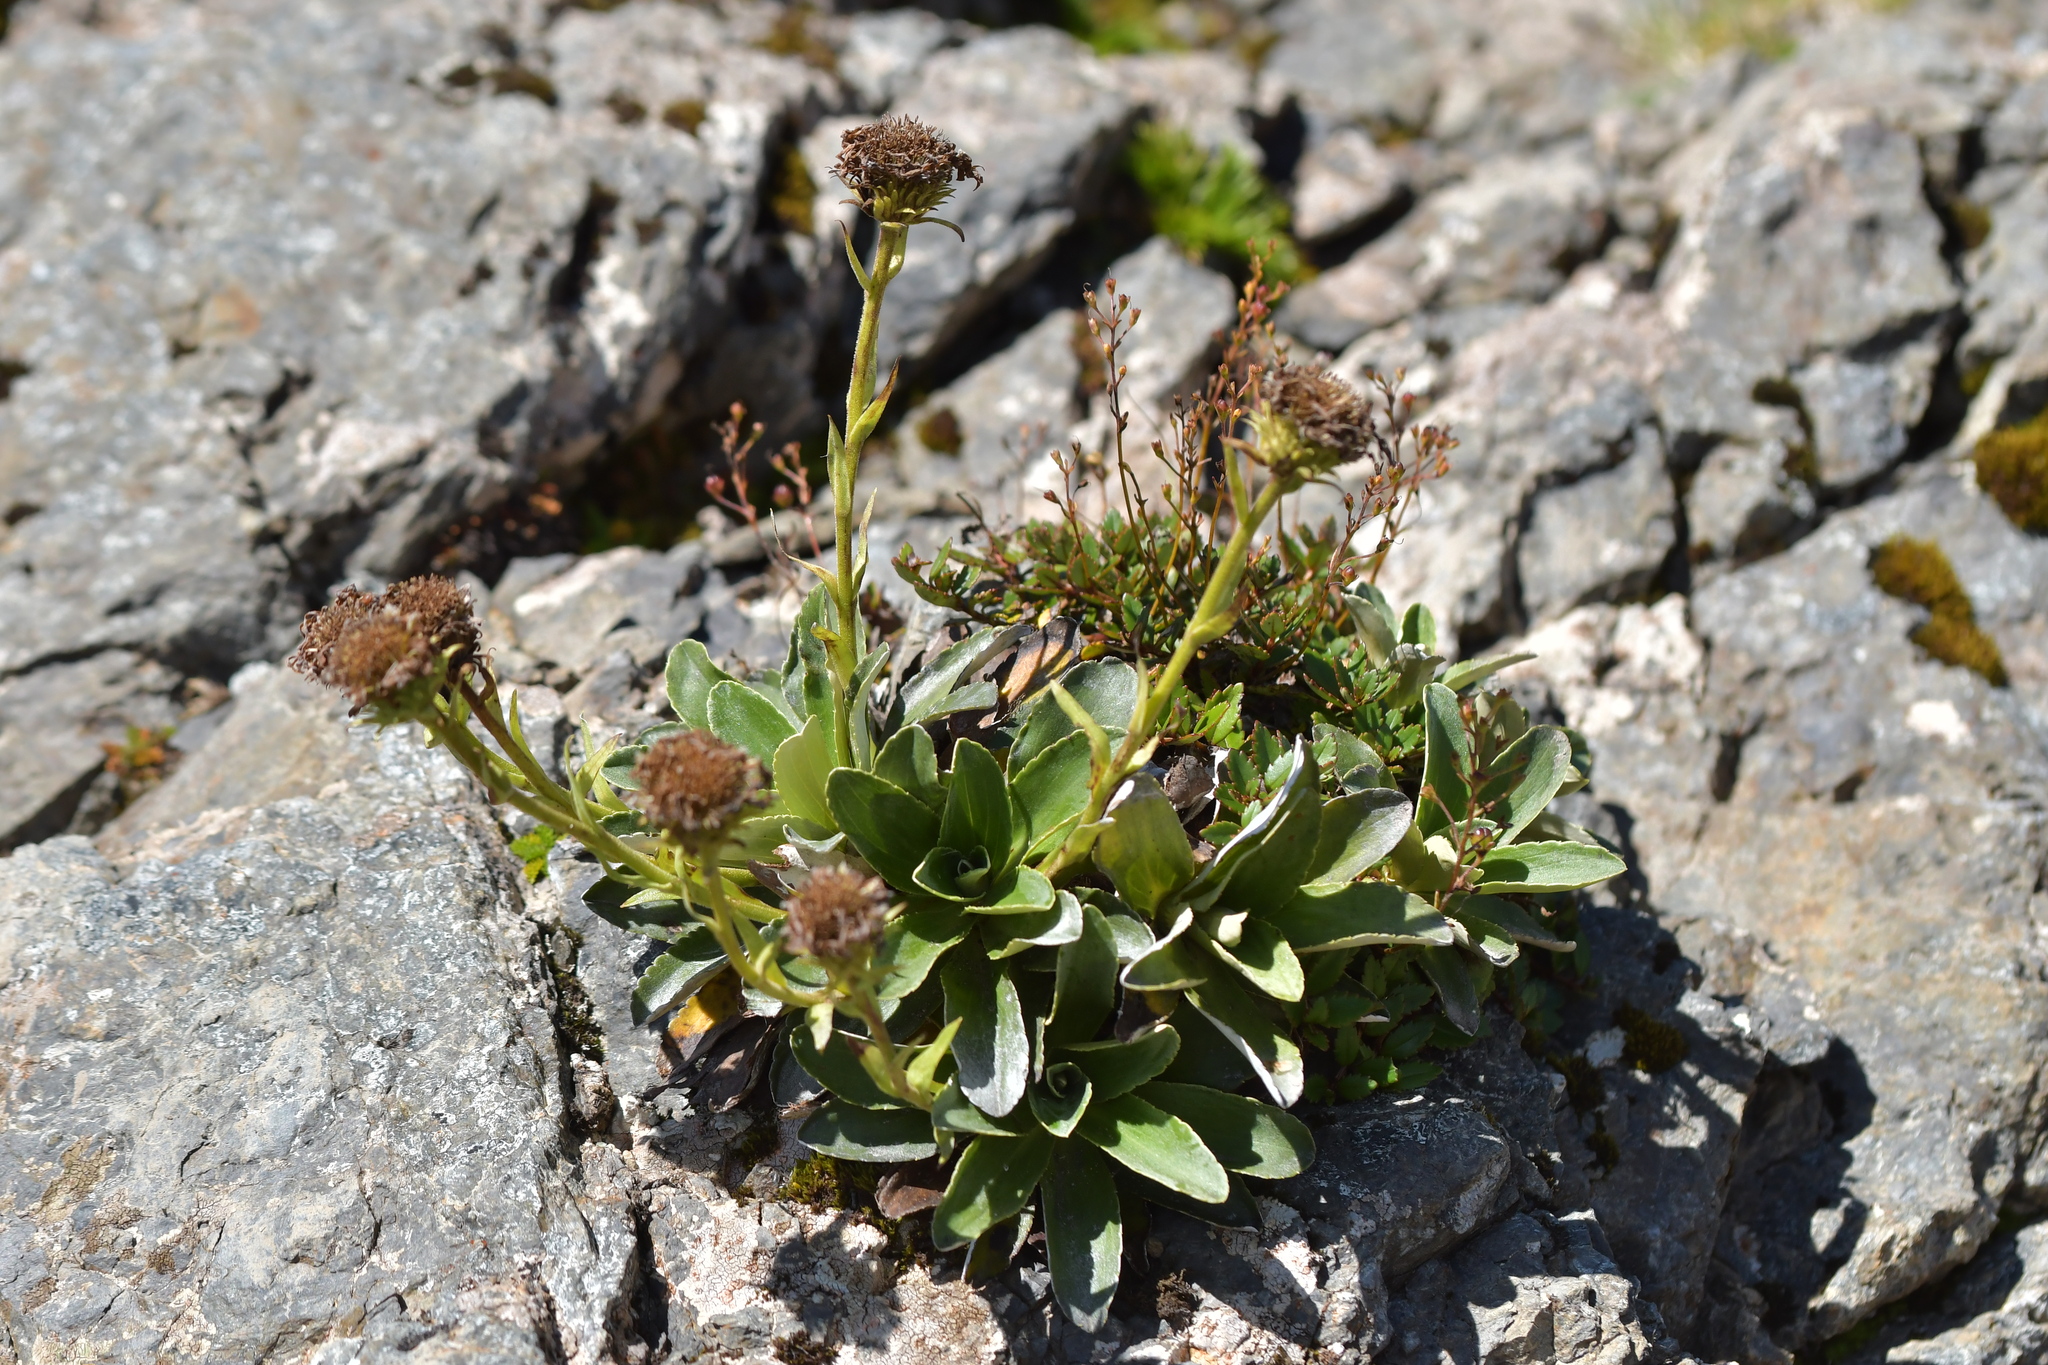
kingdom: Plantae
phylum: Tracheophyta
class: Magnoliopsida
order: Asterales
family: Asteraceae
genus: Celmisia
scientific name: Celmisia hieraciifolia
